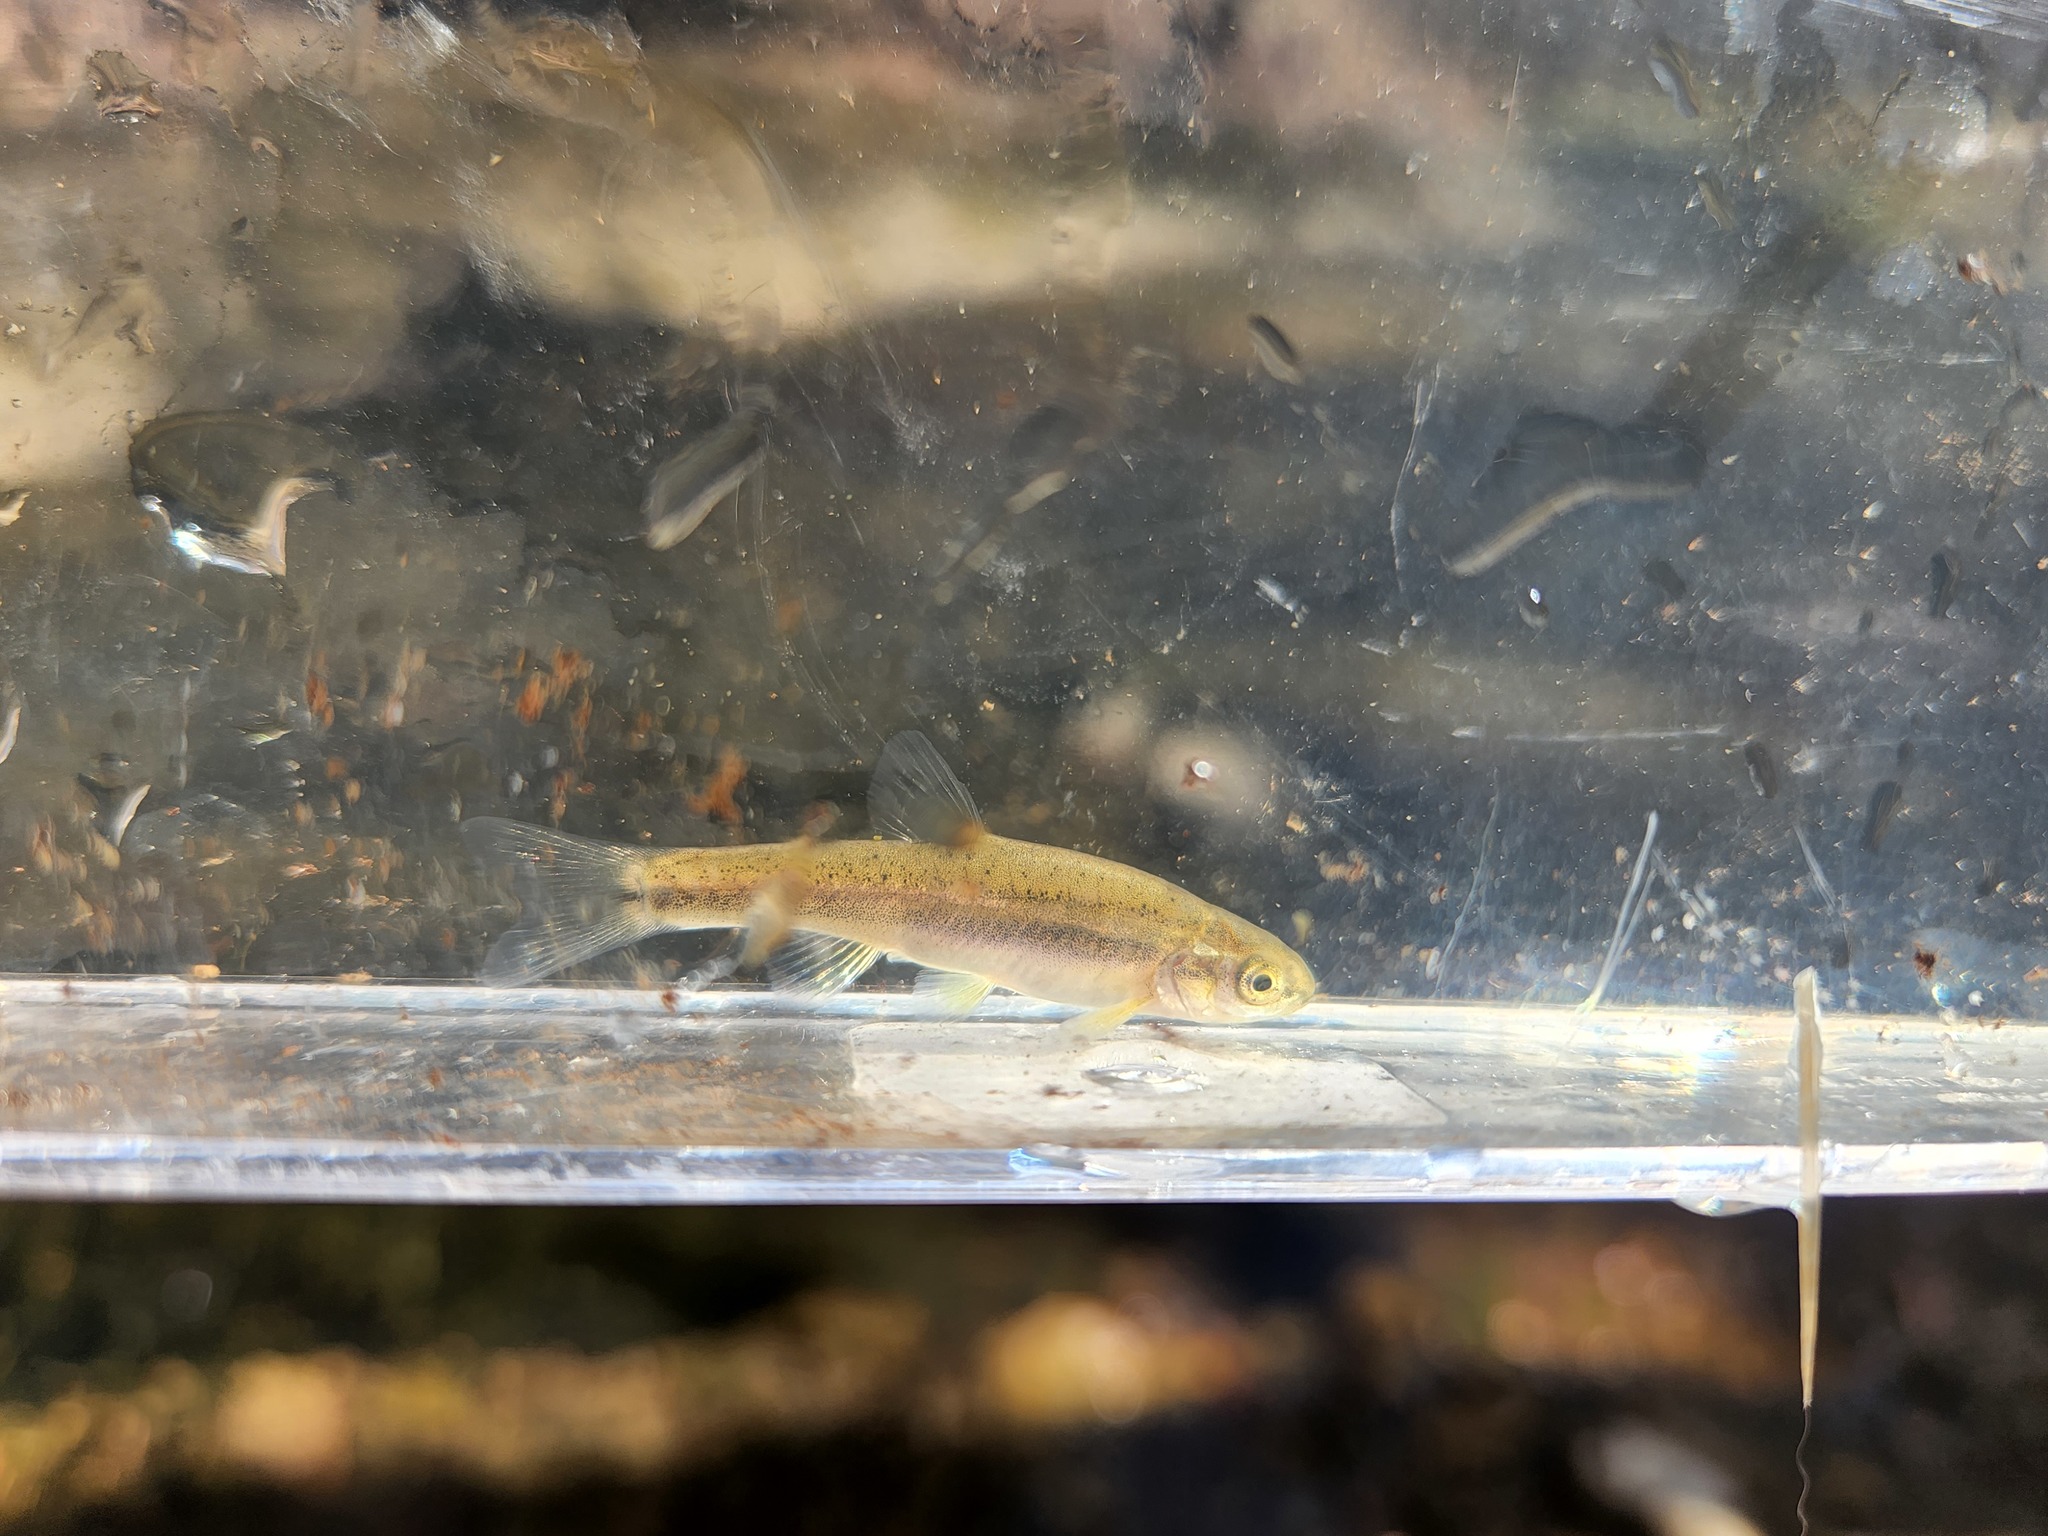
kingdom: Animalia
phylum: Chordata
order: Cypriniformes
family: Cyprinidae
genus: Chrosomus
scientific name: Chrosomus erythrogaster
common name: Southern redbelly dace
